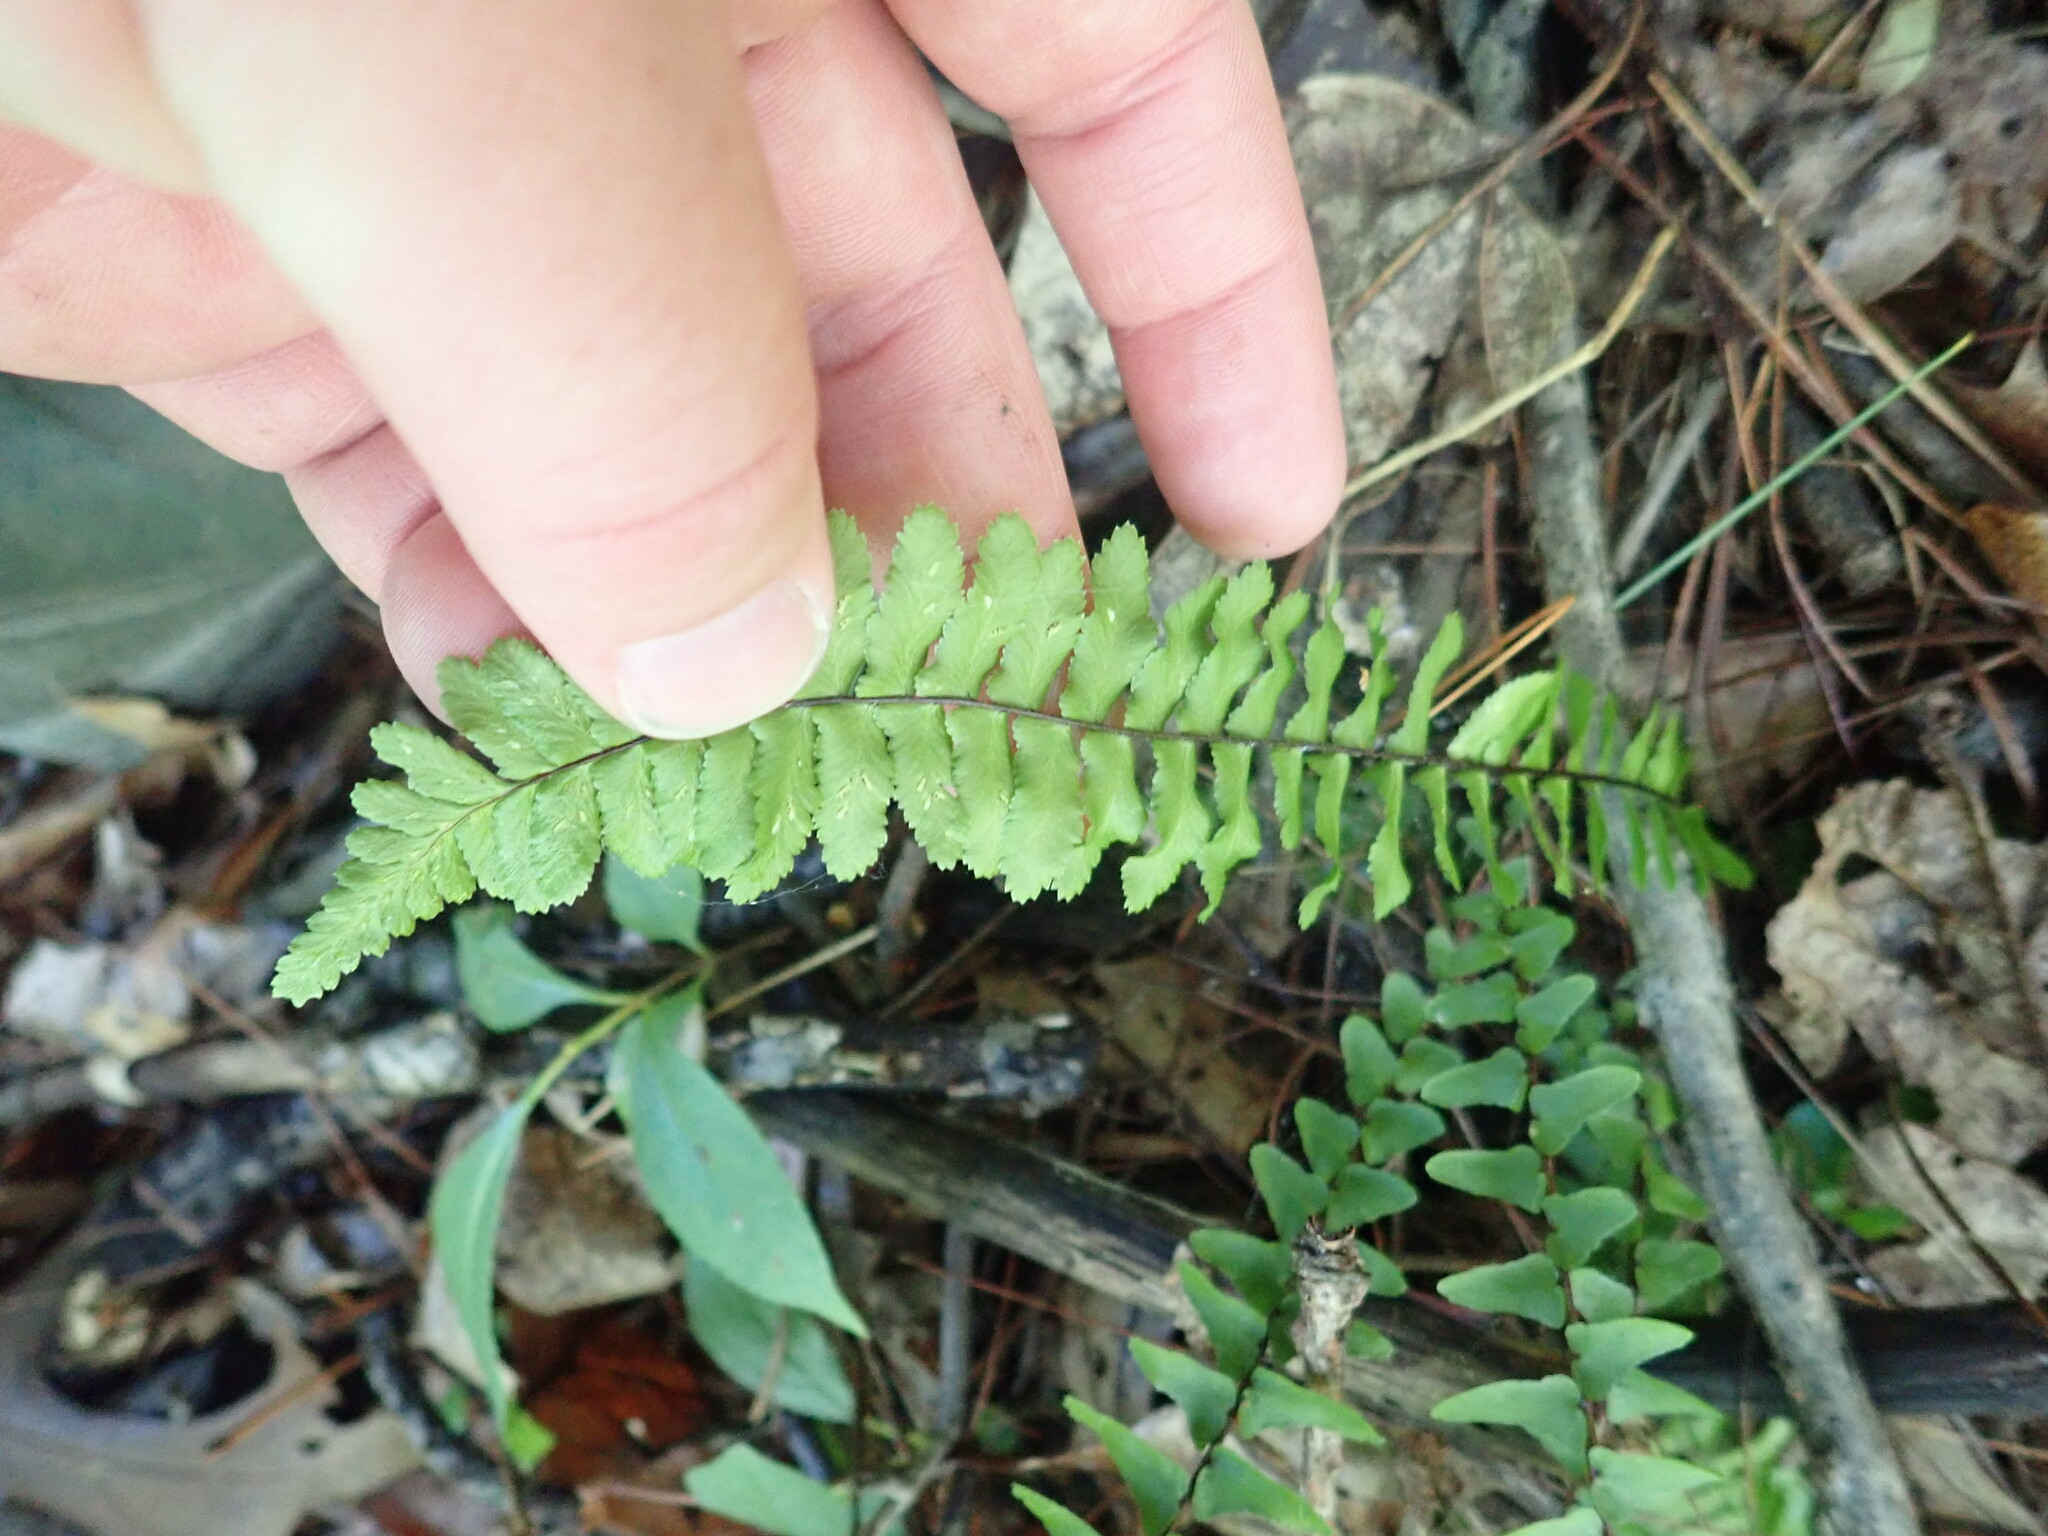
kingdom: Plantae
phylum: Tracheophyta
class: Polypodiopsida
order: Polypodiales
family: Aspleniaceae
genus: Asplenium
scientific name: Asplenium platyneuron
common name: Ebony spleenwort
